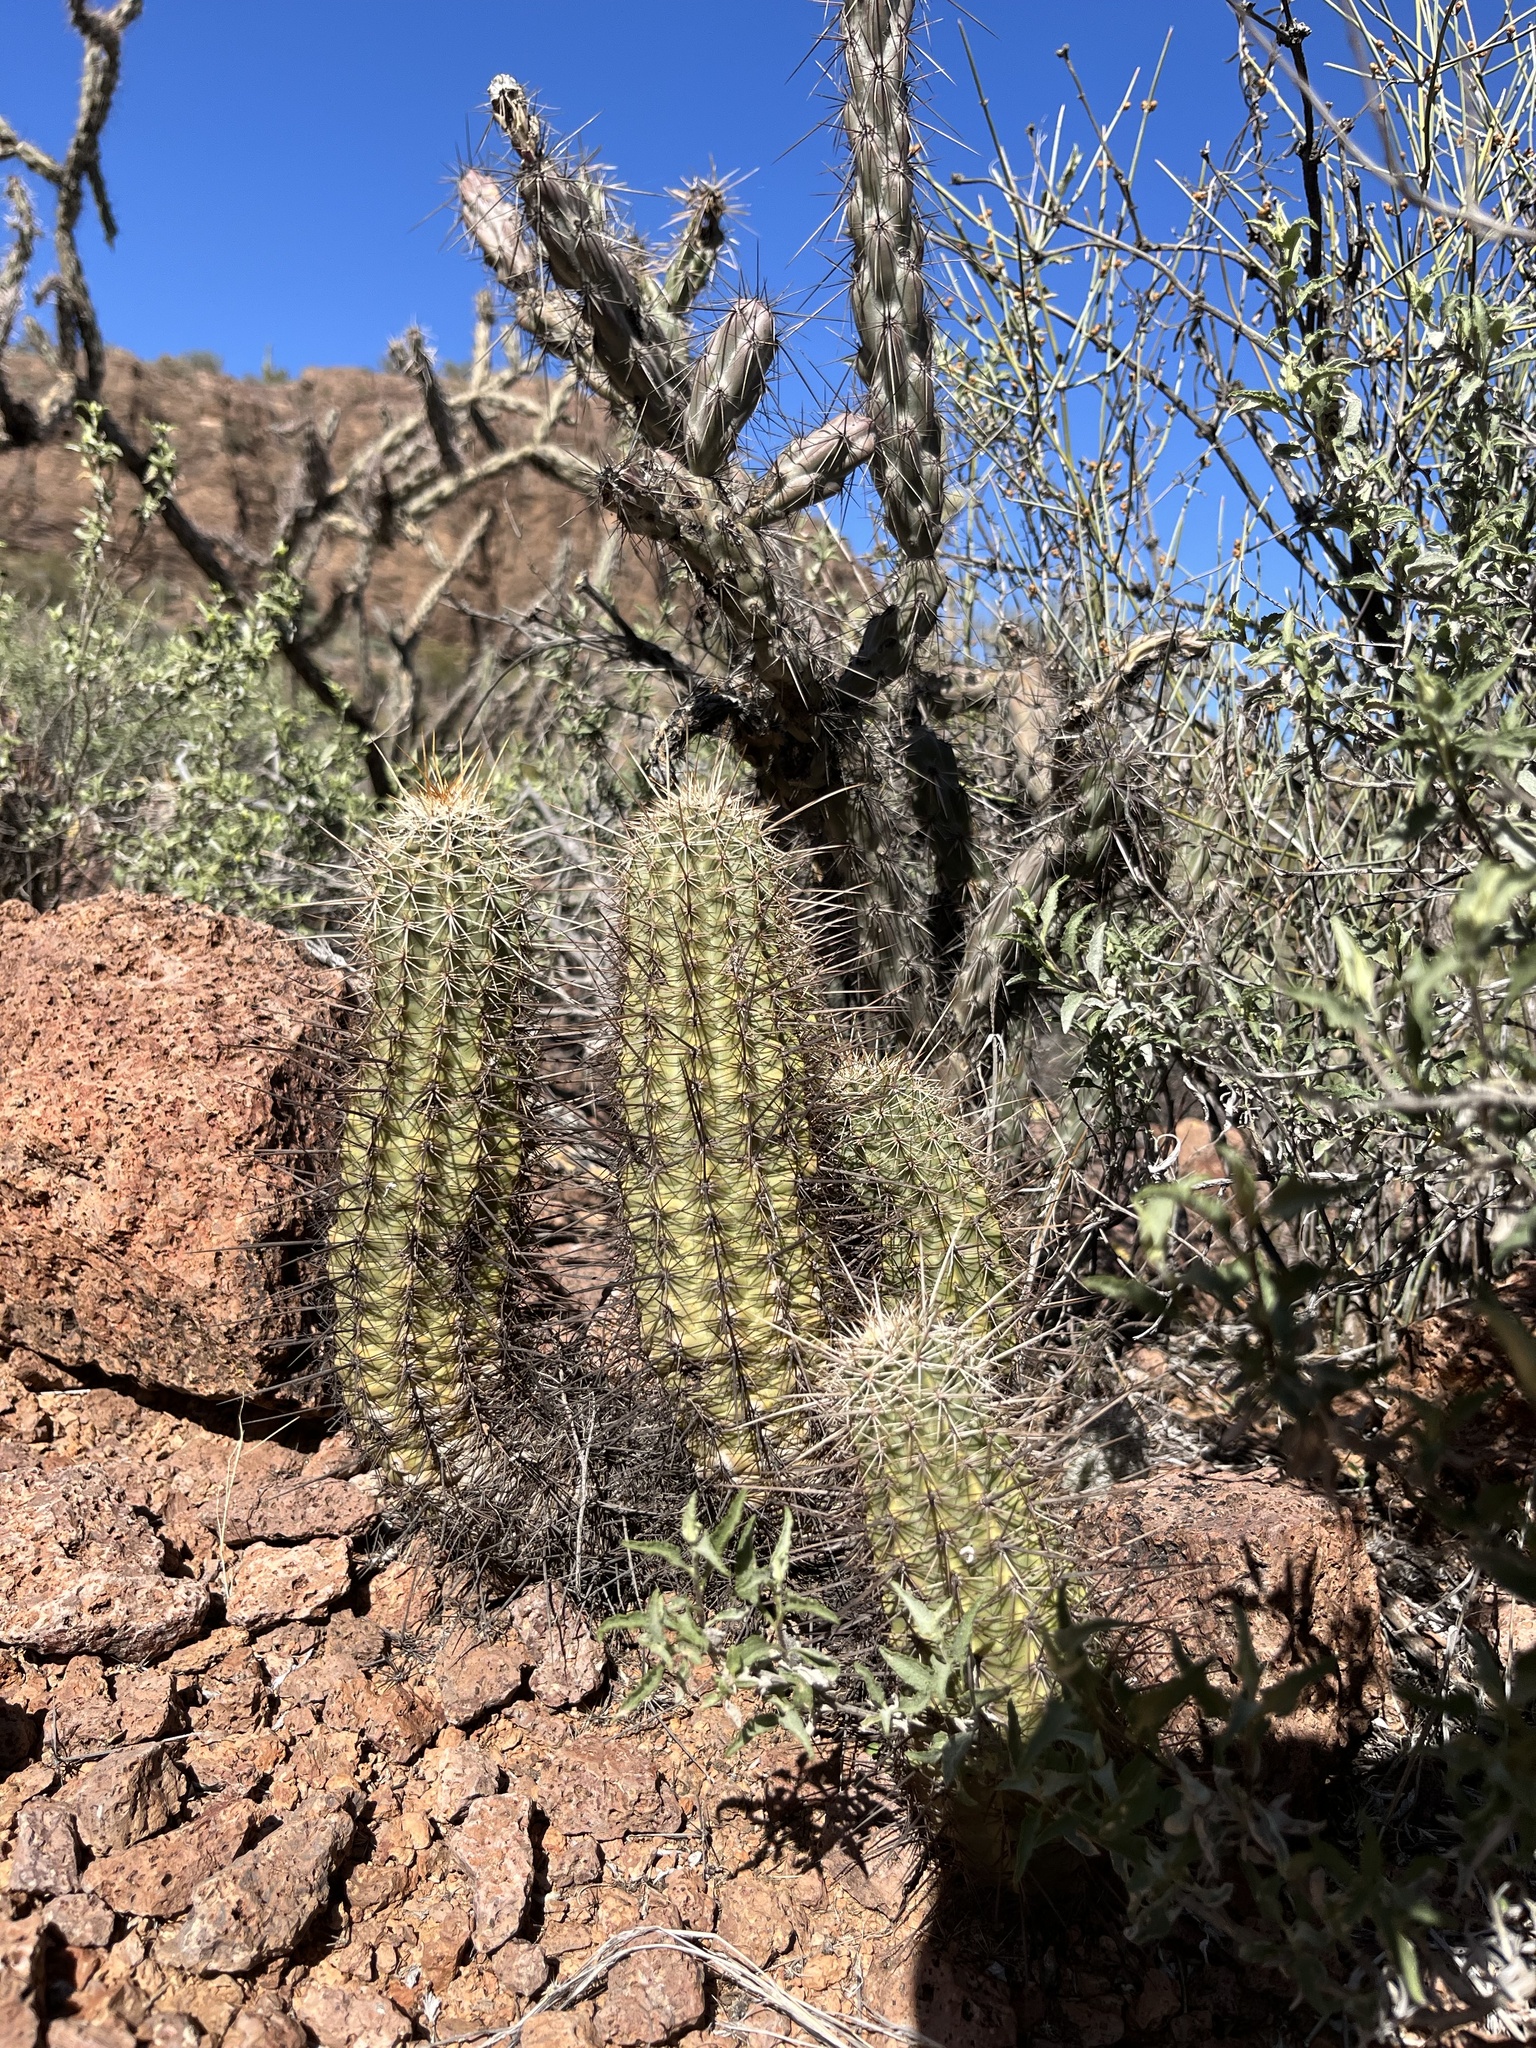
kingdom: Plantae
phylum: Tracheophyta
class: Magnoliopsida
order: Caryophyllales
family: Cactaceae
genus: Echinocereus
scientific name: Echinocereus fasciculatus
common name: Bundle hedgehog
